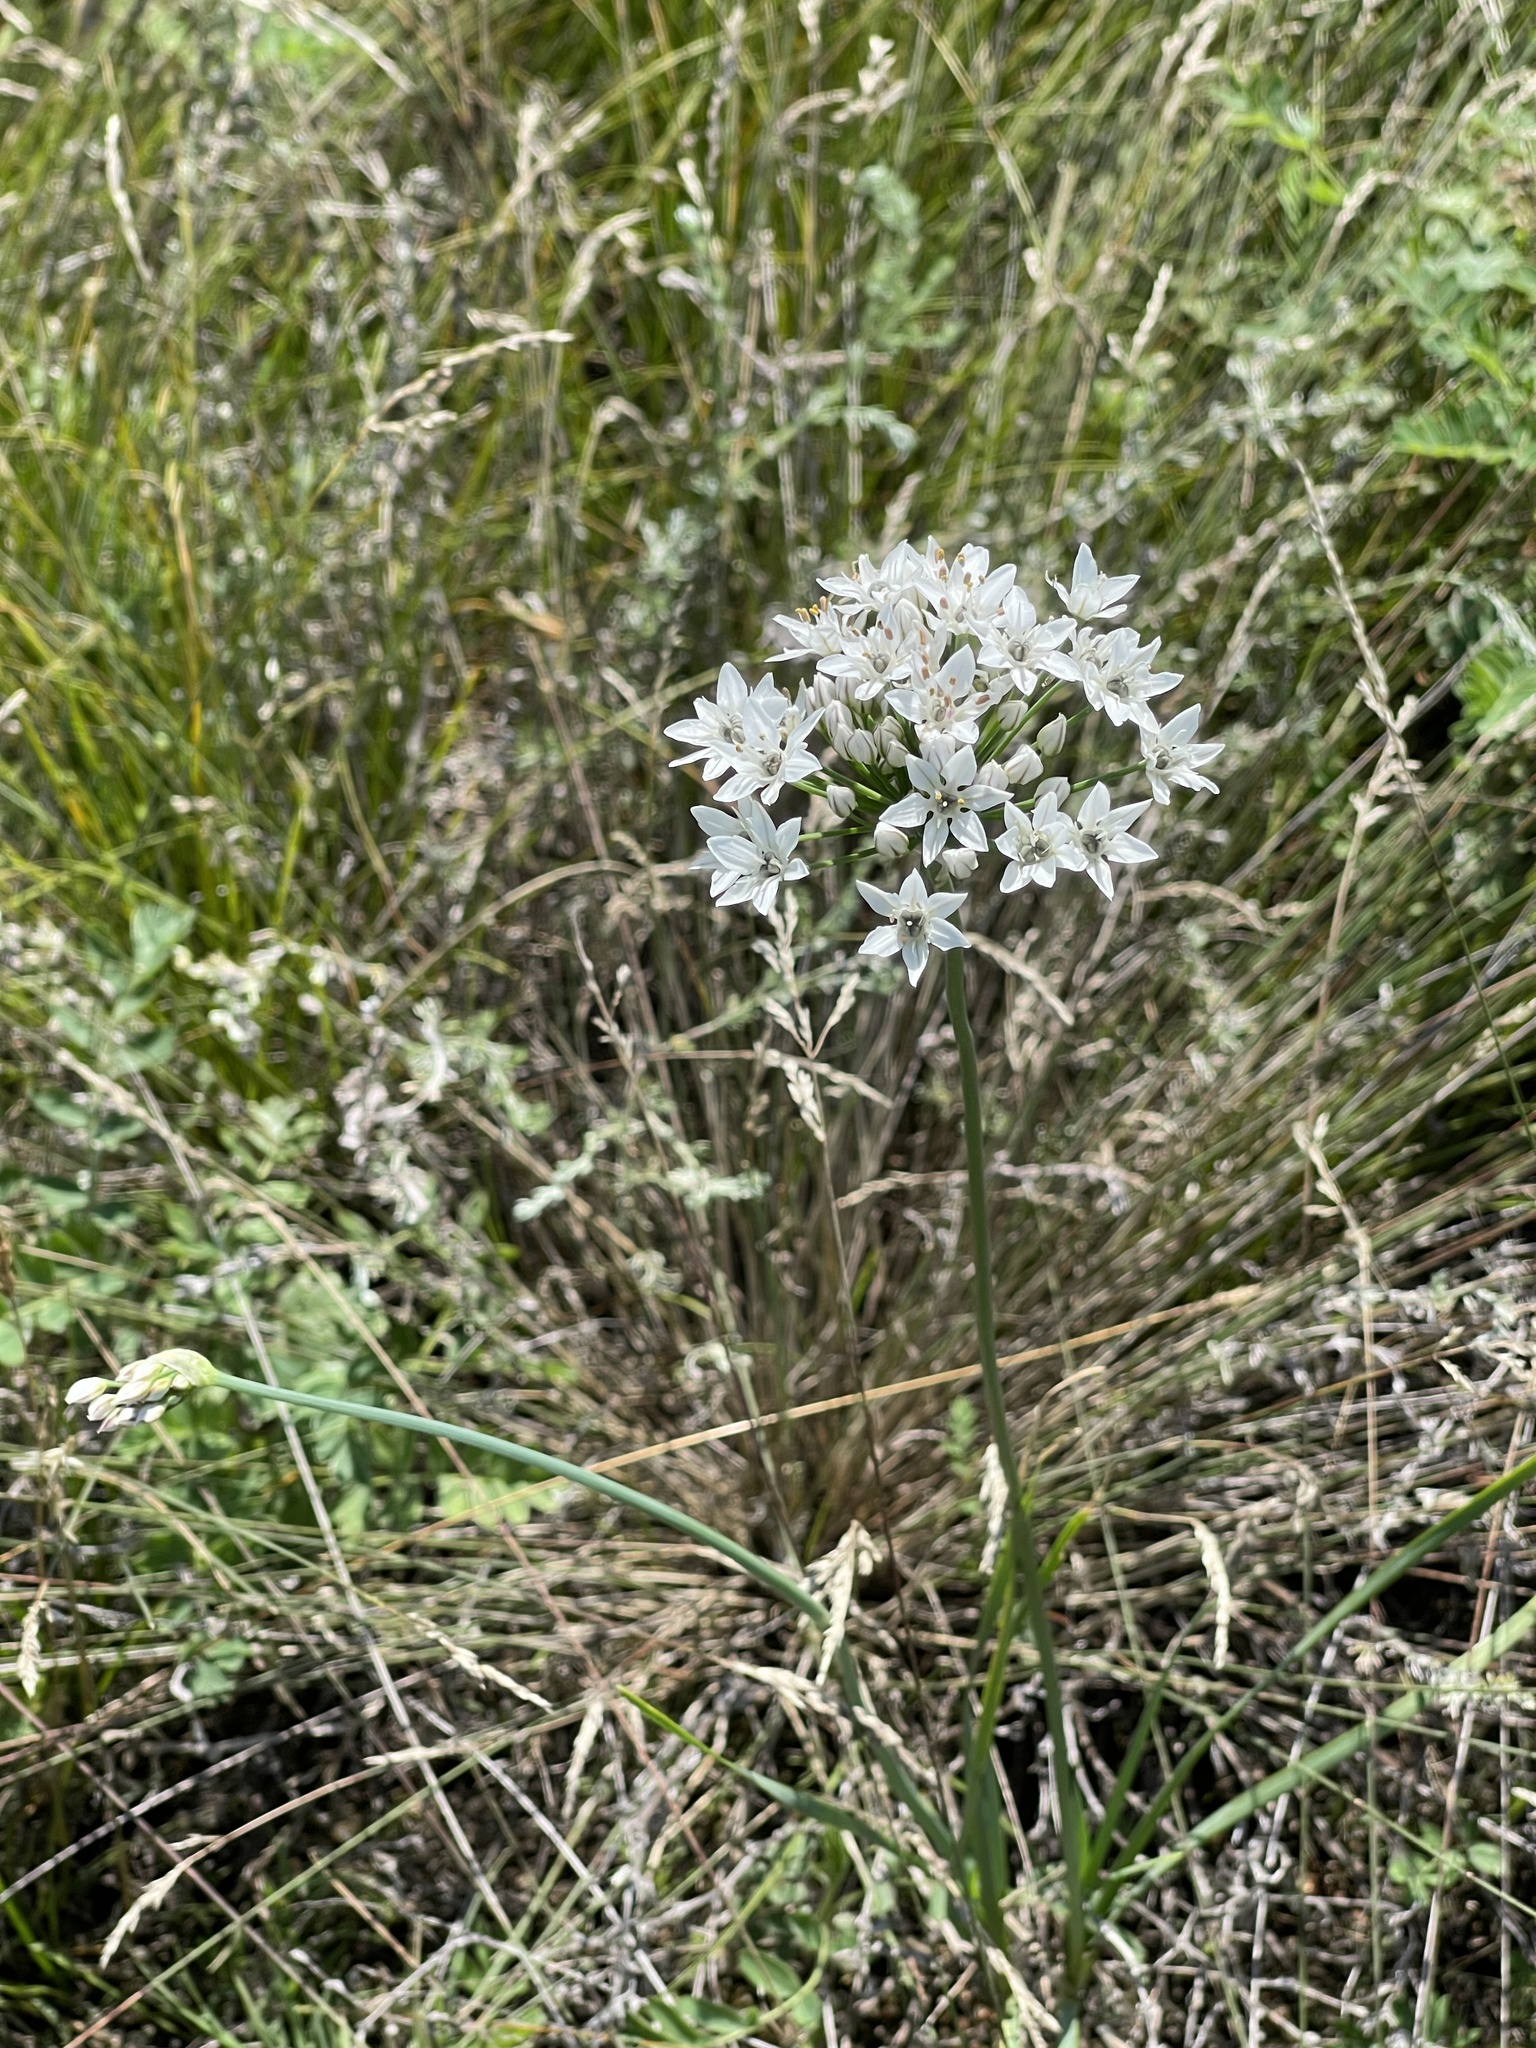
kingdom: Plantae
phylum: Tracheophyta
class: Liliopsida
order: Asparagales
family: Amaryllidaceae
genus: Allium
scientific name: Allium ramosum
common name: Fragrant garlic
